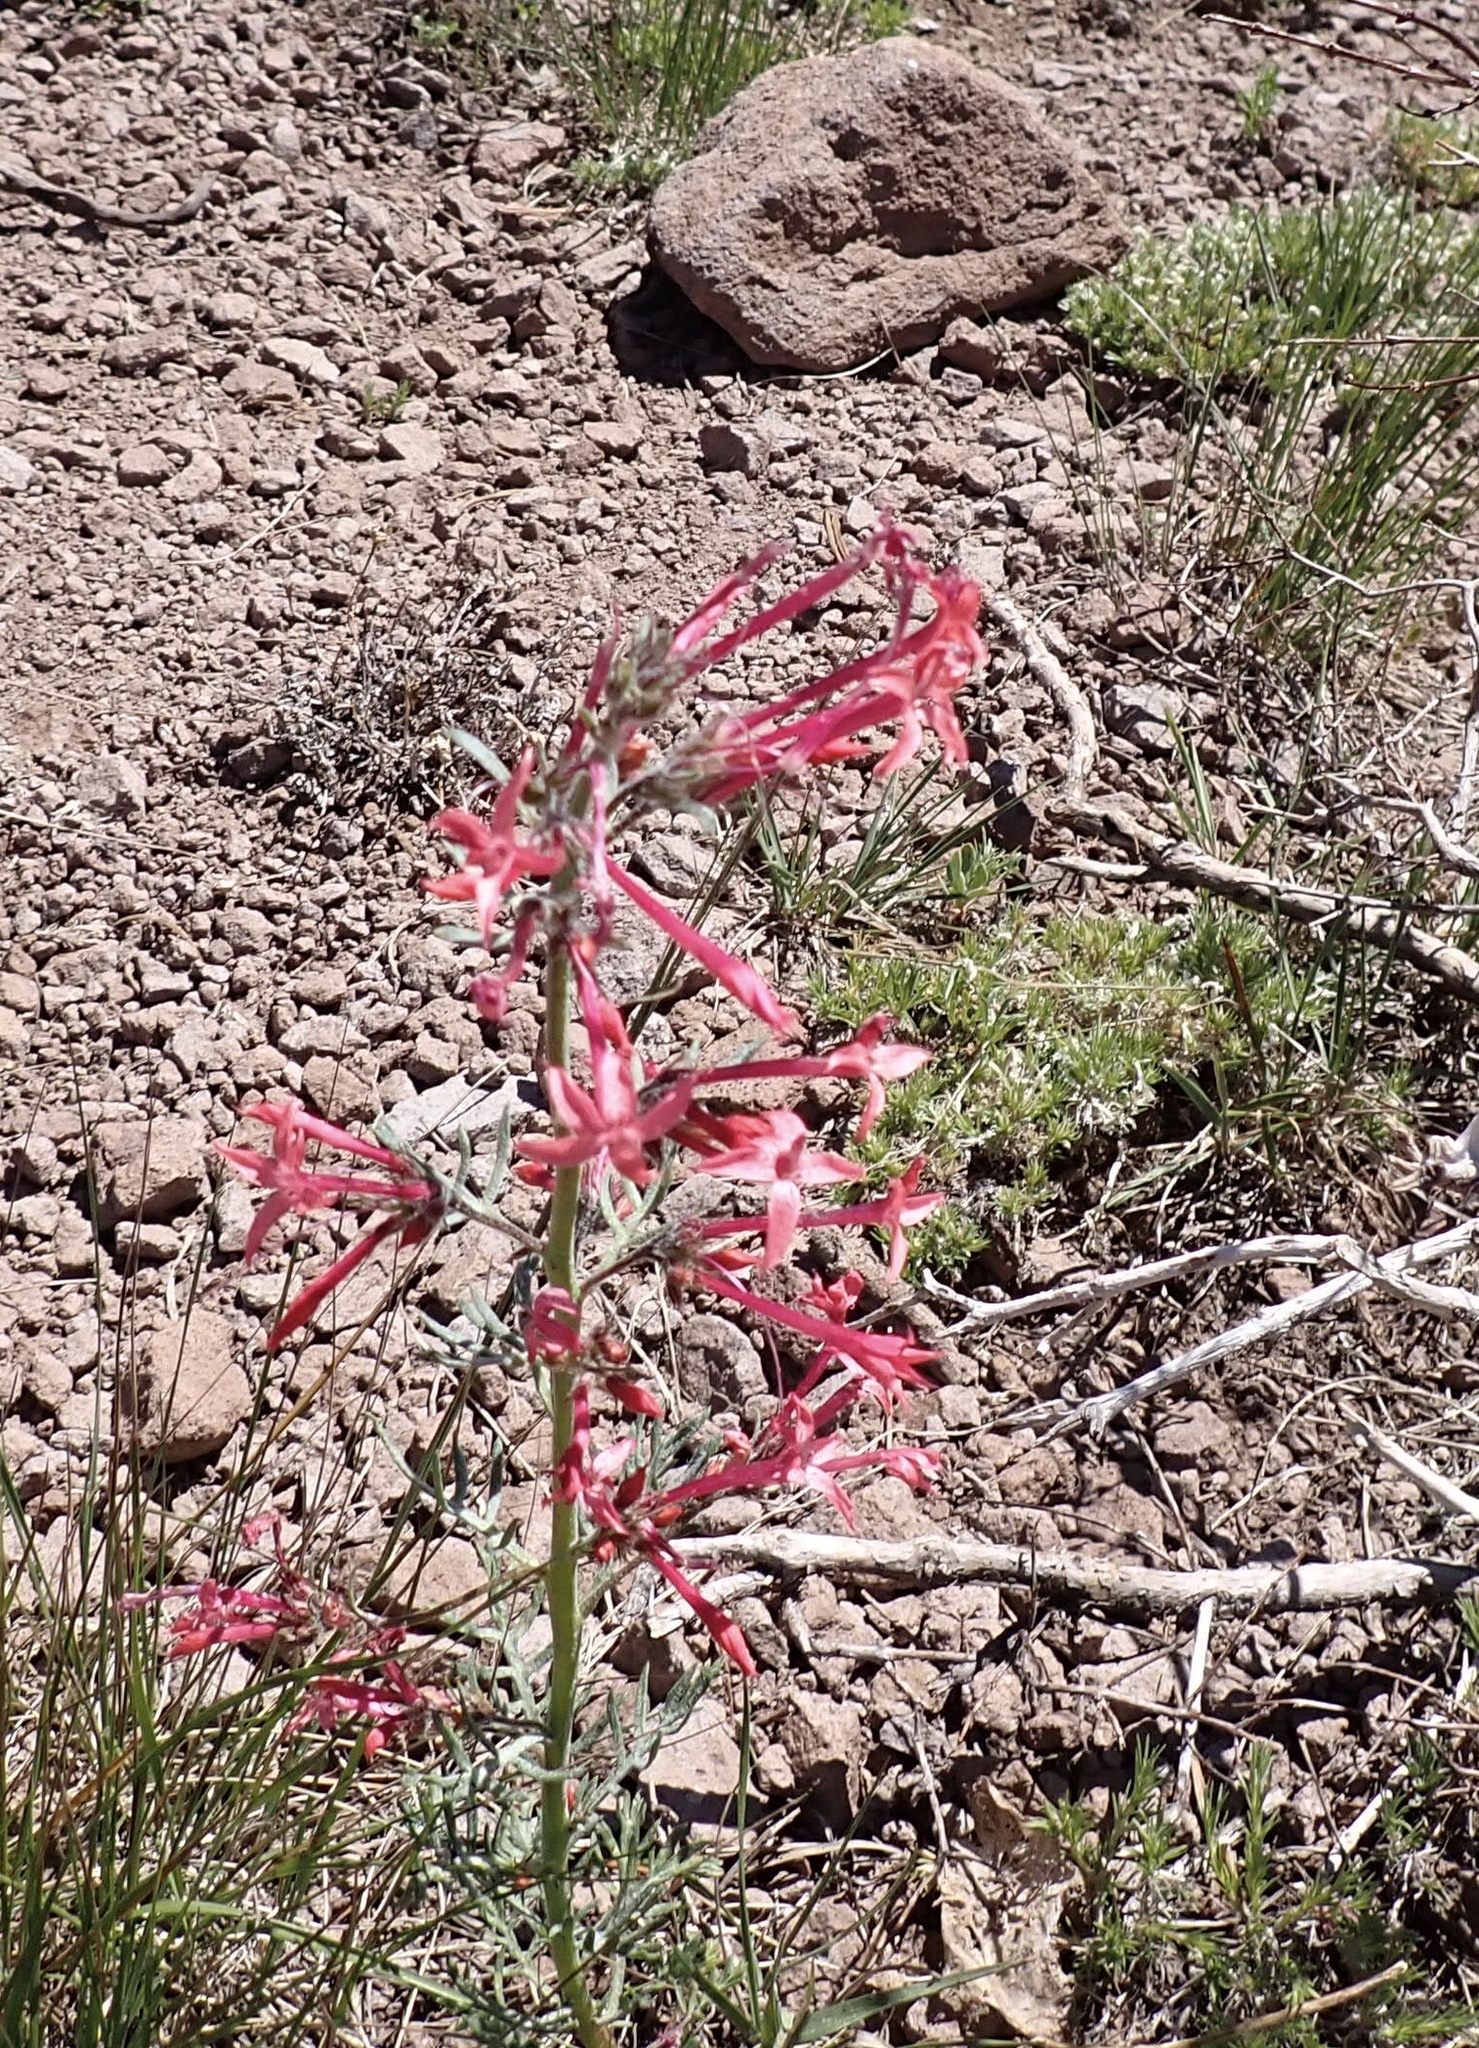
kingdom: Plantae
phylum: Tracheophyta
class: Magnoliopsida
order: Ericales
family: Polemoniaceae
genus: Ipomopsis
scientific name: Ipomopsis tenuituba
